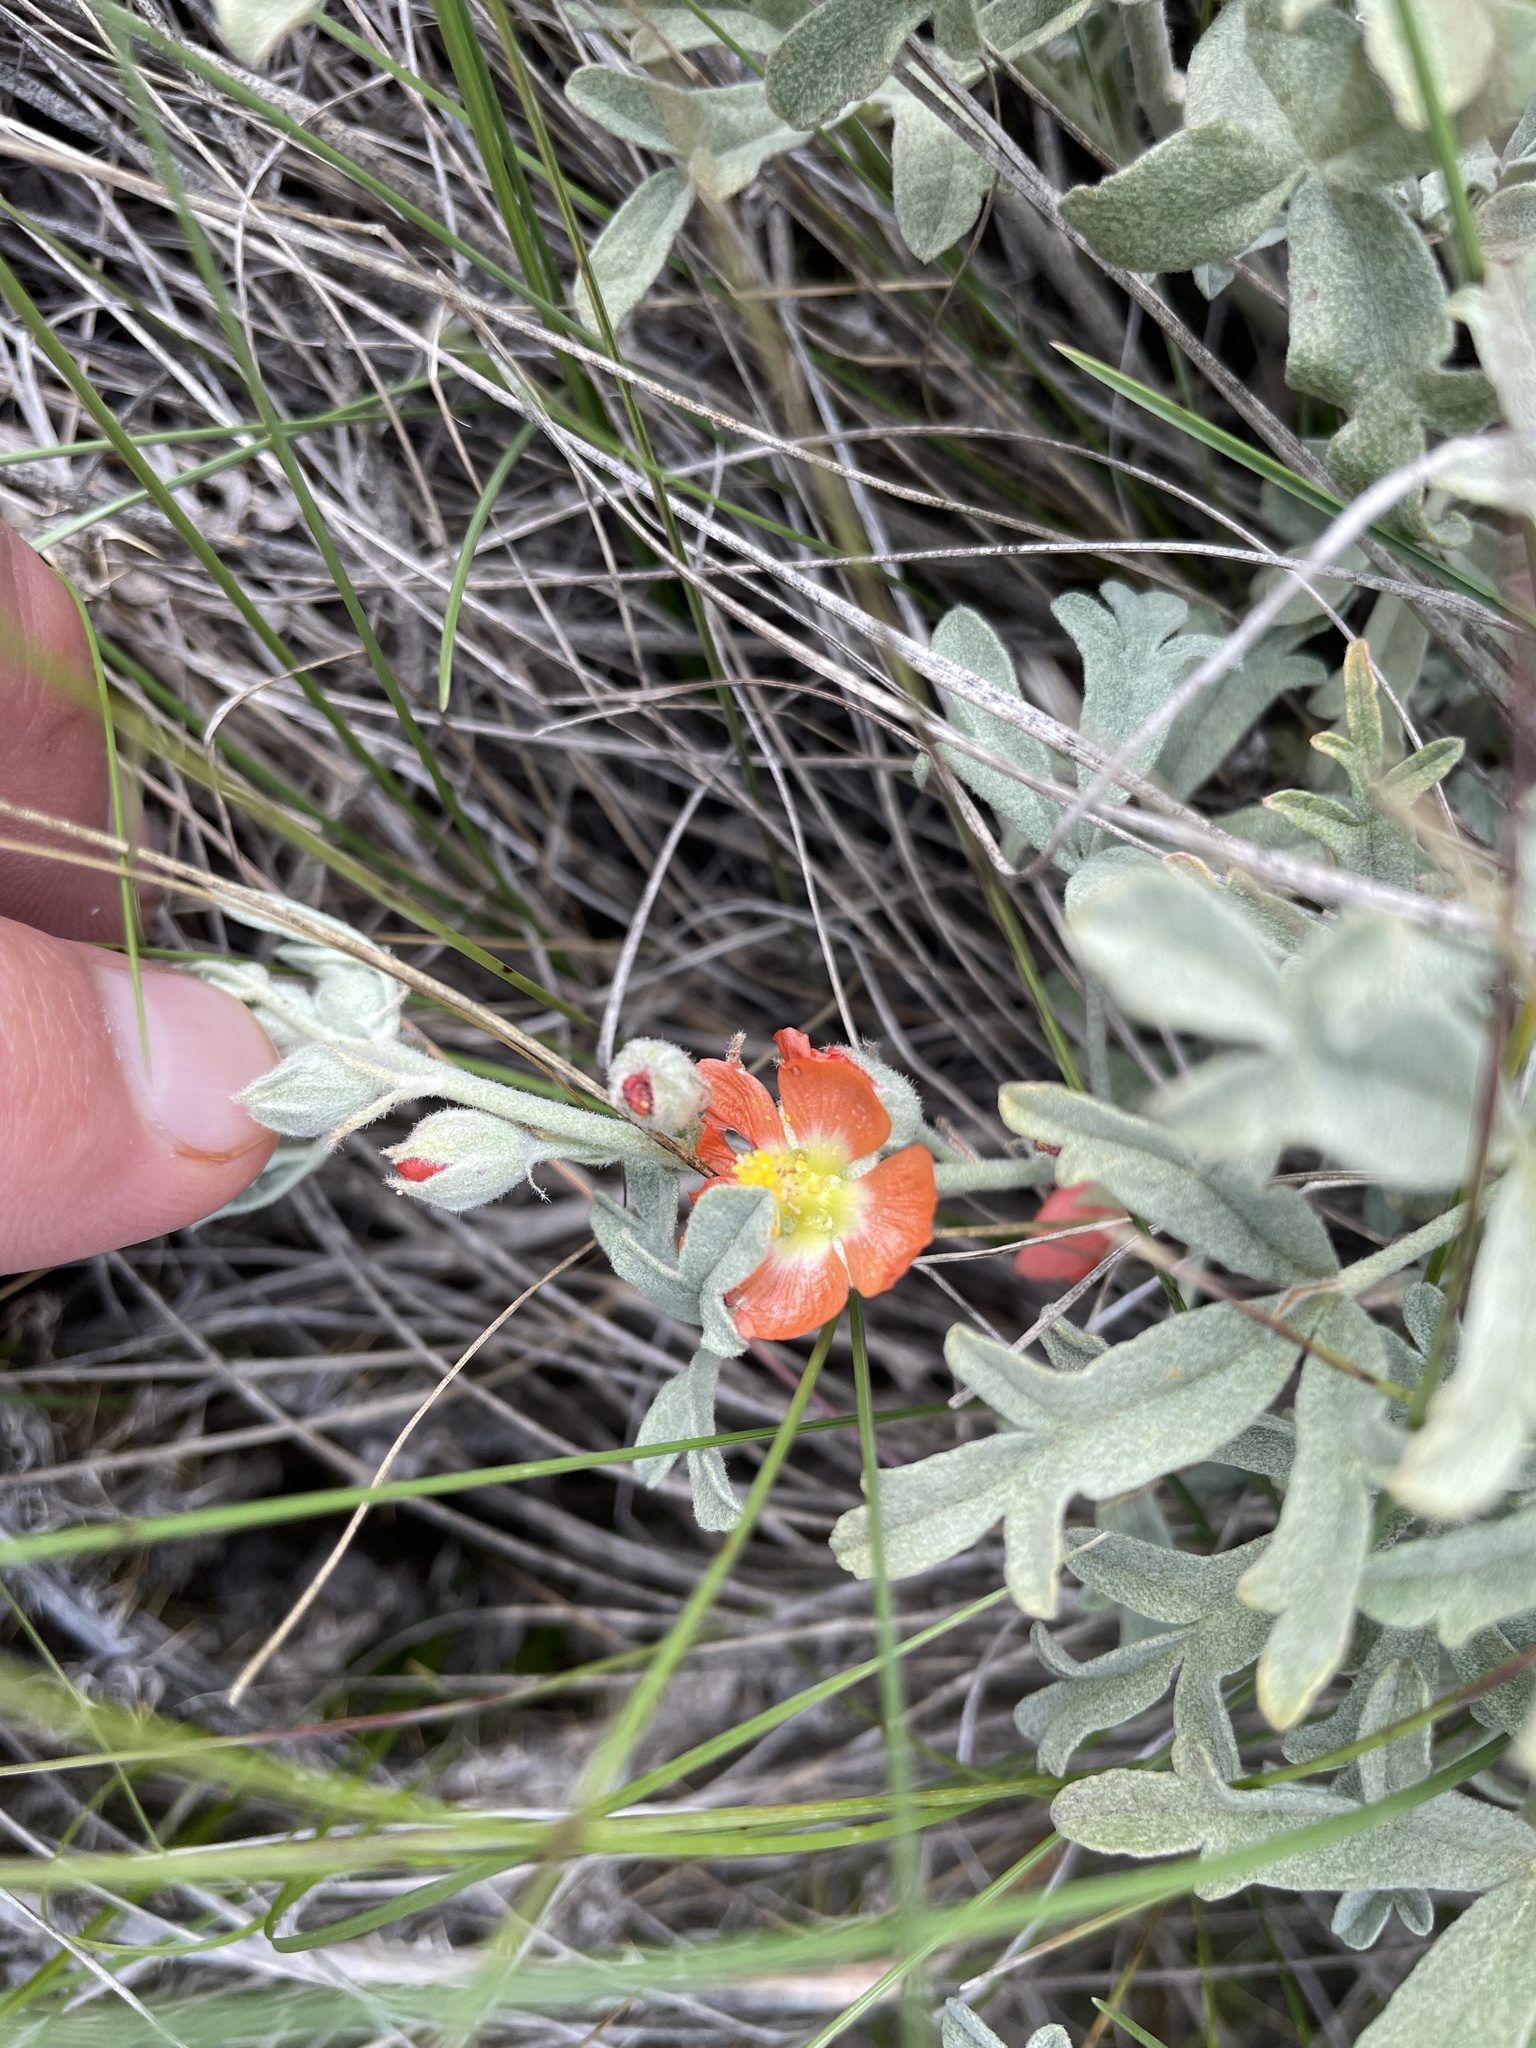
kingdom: Plantae
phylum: Tracheophyta
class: Magnoliopsida
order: Malvales
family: Malvaceae
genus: Sphaeralcea
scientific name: Sphaeralcea coccinea
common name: Moss-rose
